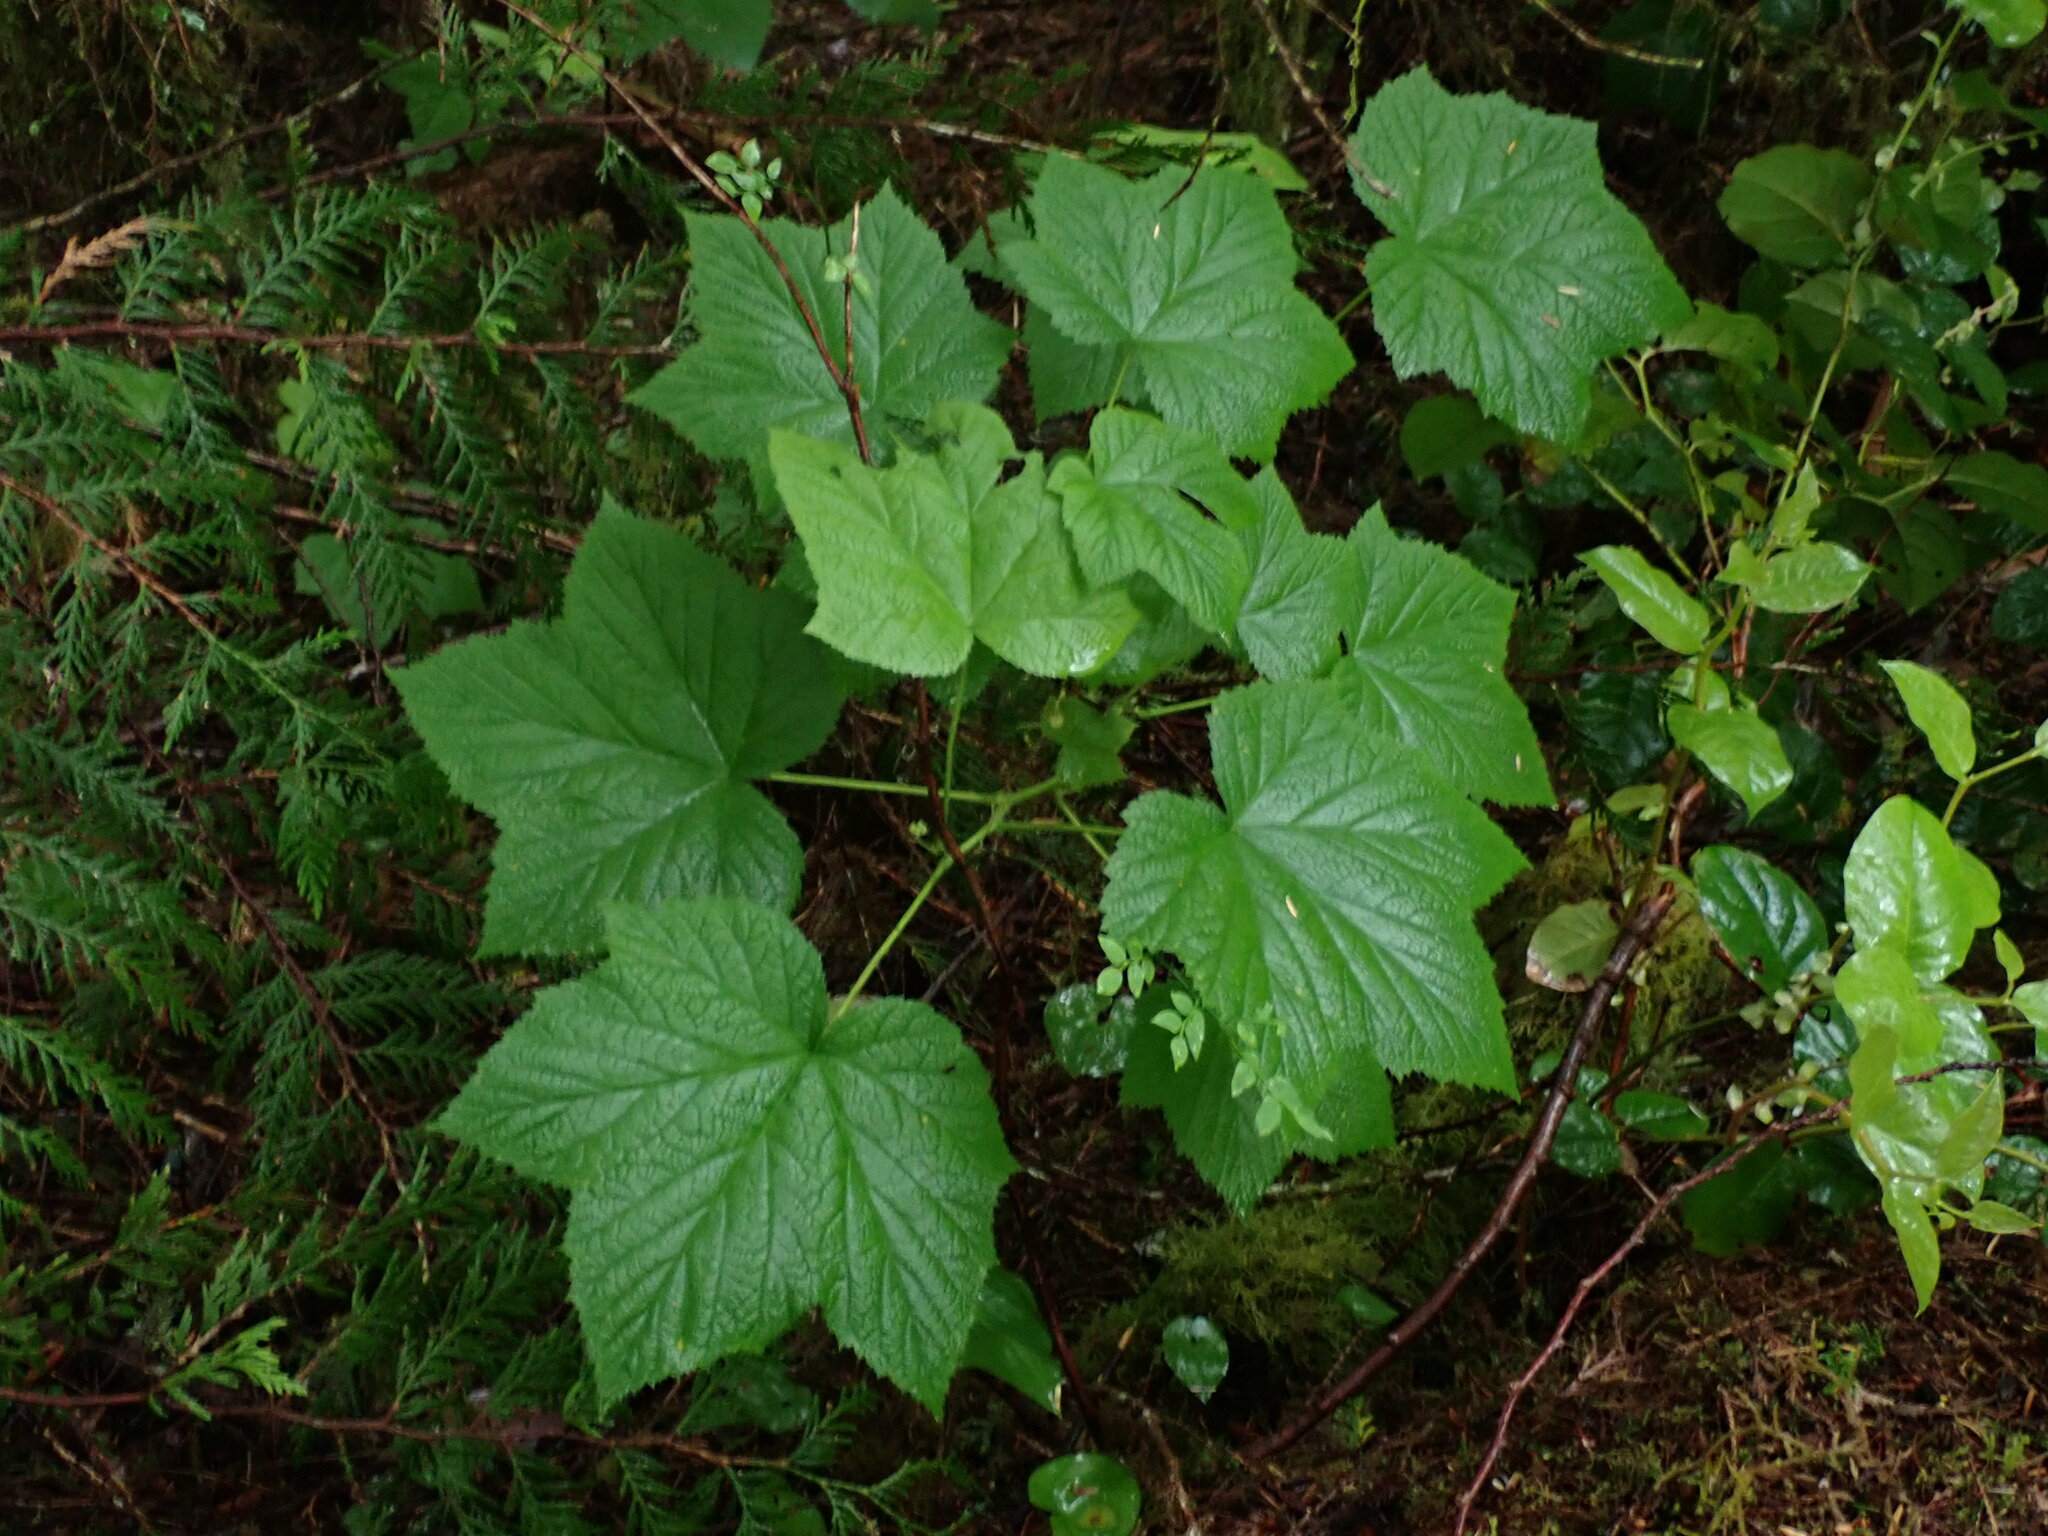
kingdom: Plantae
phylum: Tracheophyta
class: Magnoliopsida
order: Rosales
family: Rosaceae
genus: Rubus
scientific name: Rubus parviflorus
